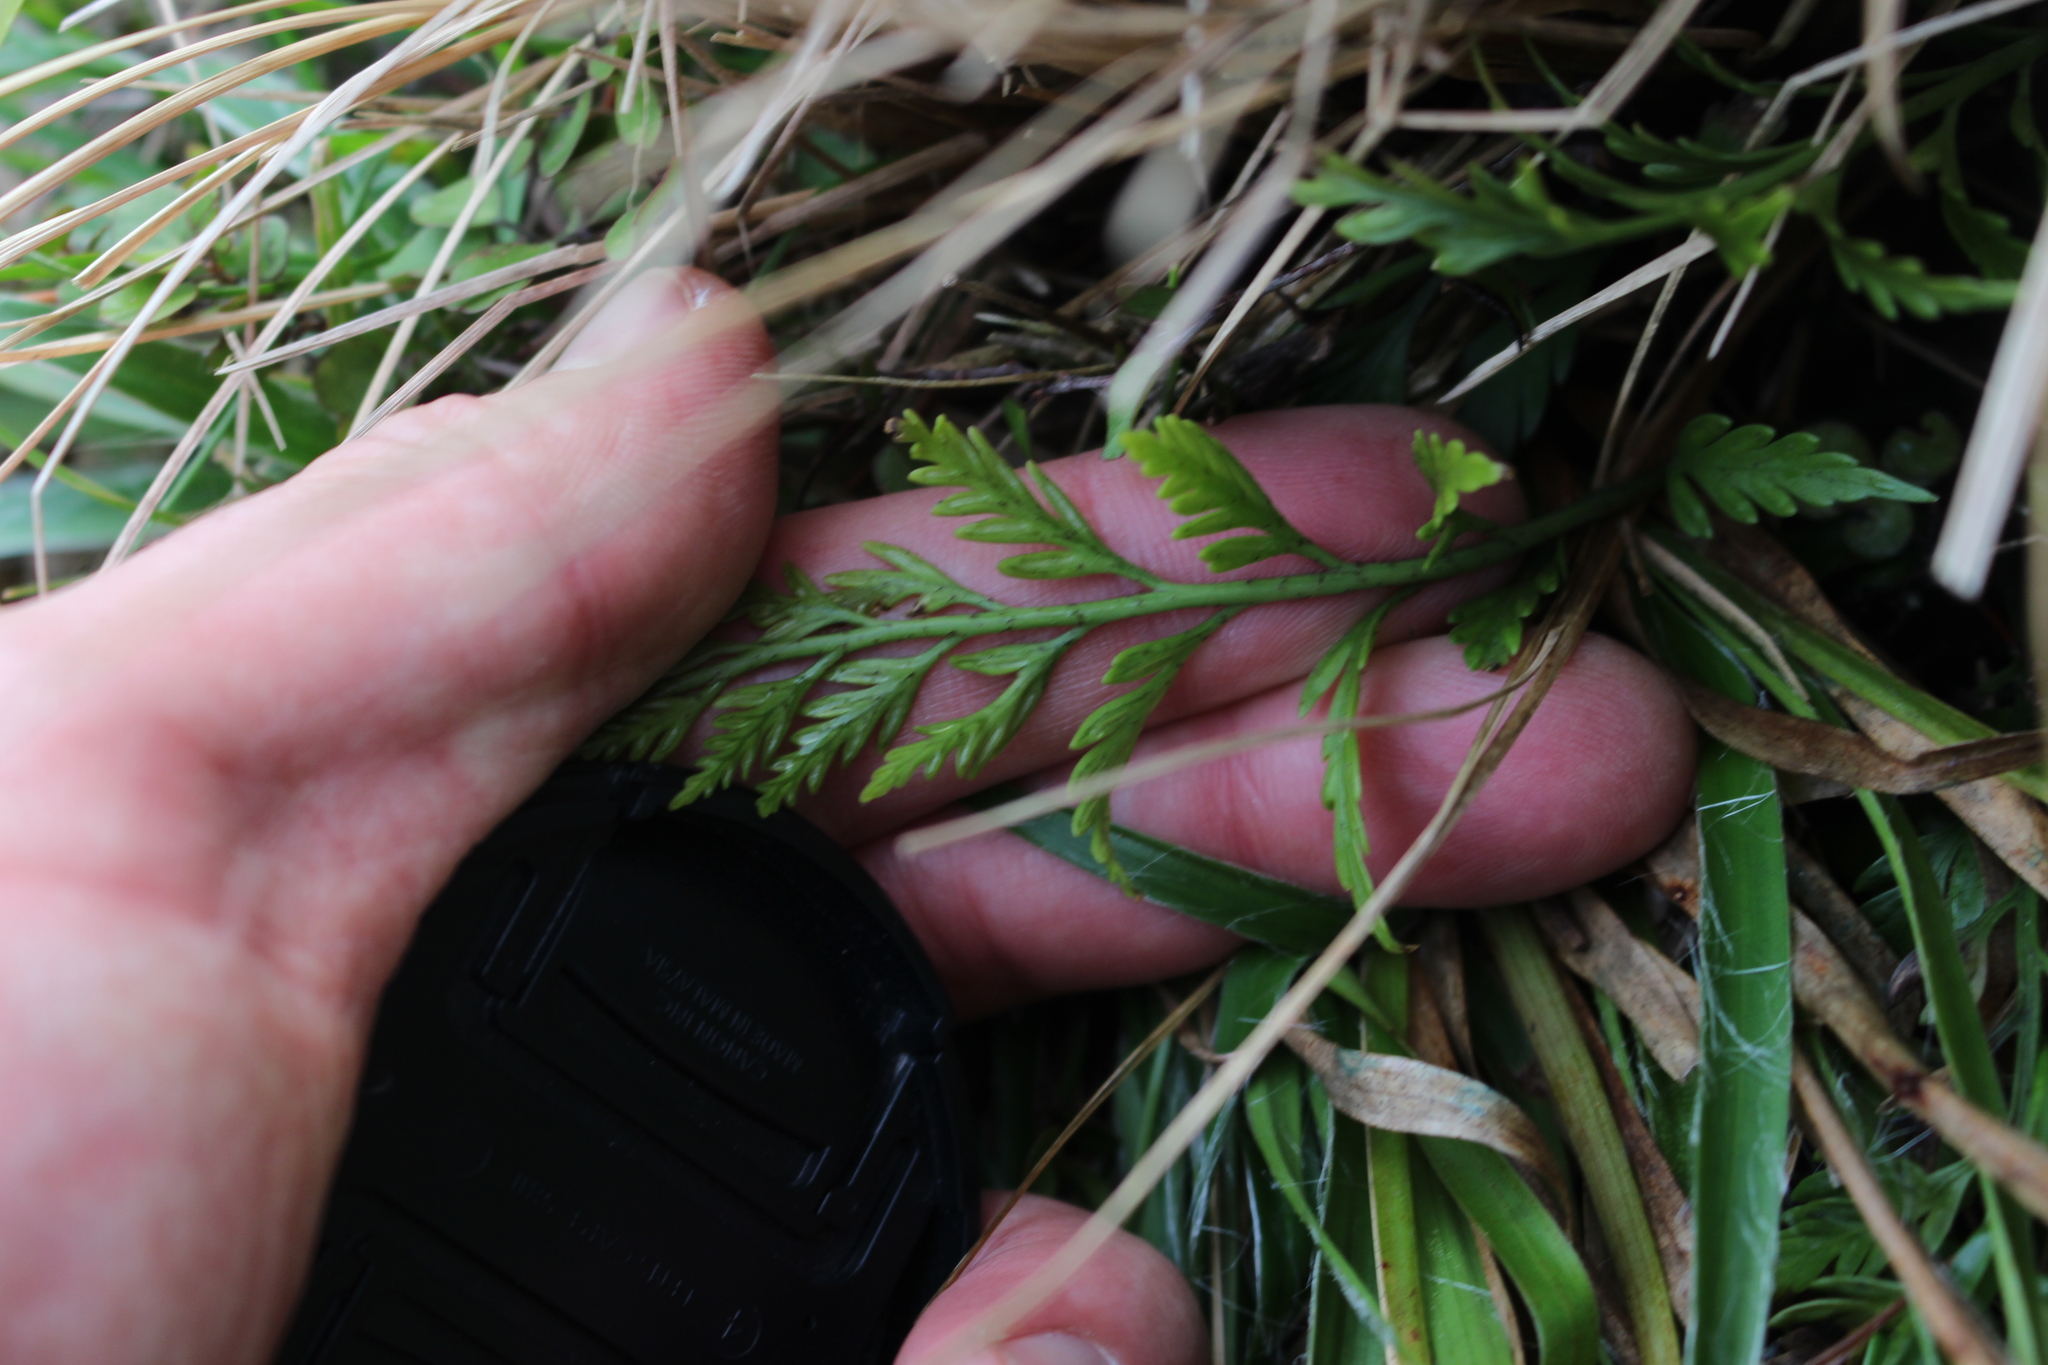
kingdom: Plantae
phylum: Tracheophyta
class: Polypodiopsida
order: Polypodiales
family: Aspleniaceae
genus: Asplenium
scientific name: Asplenium appendiculatum
